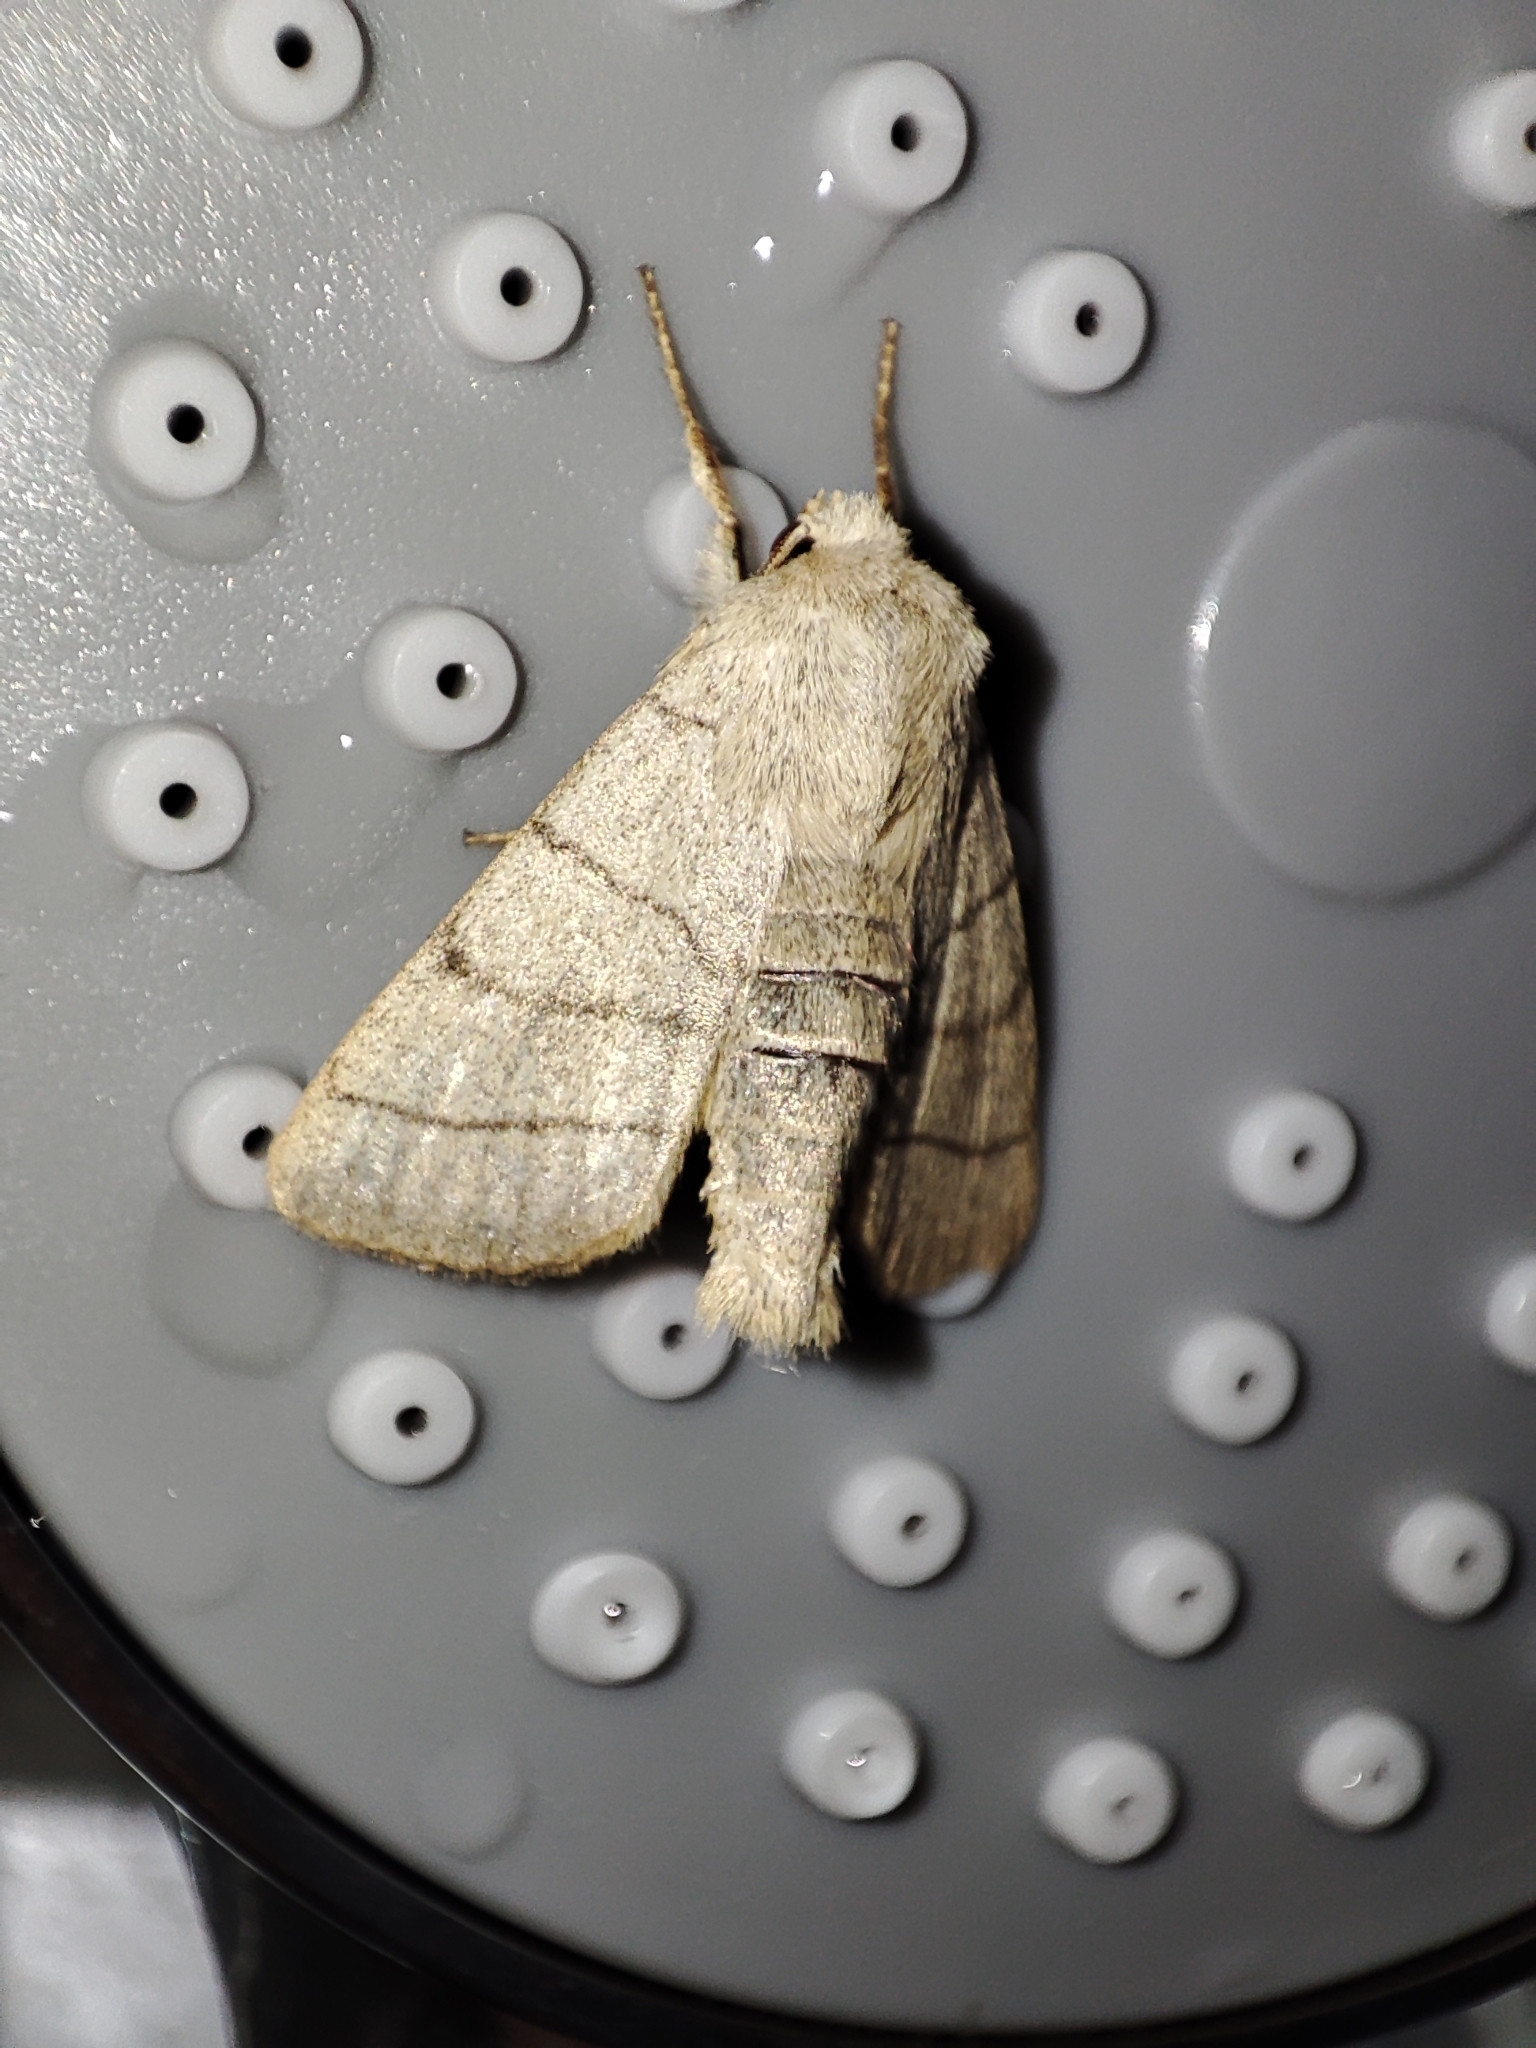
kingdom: Animalia
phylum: Arthropoda
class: Insecta
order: Lepidoptera
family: Noctuidae
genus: Charanyca
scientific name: Charanyca trigrammica
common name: Treble lines
